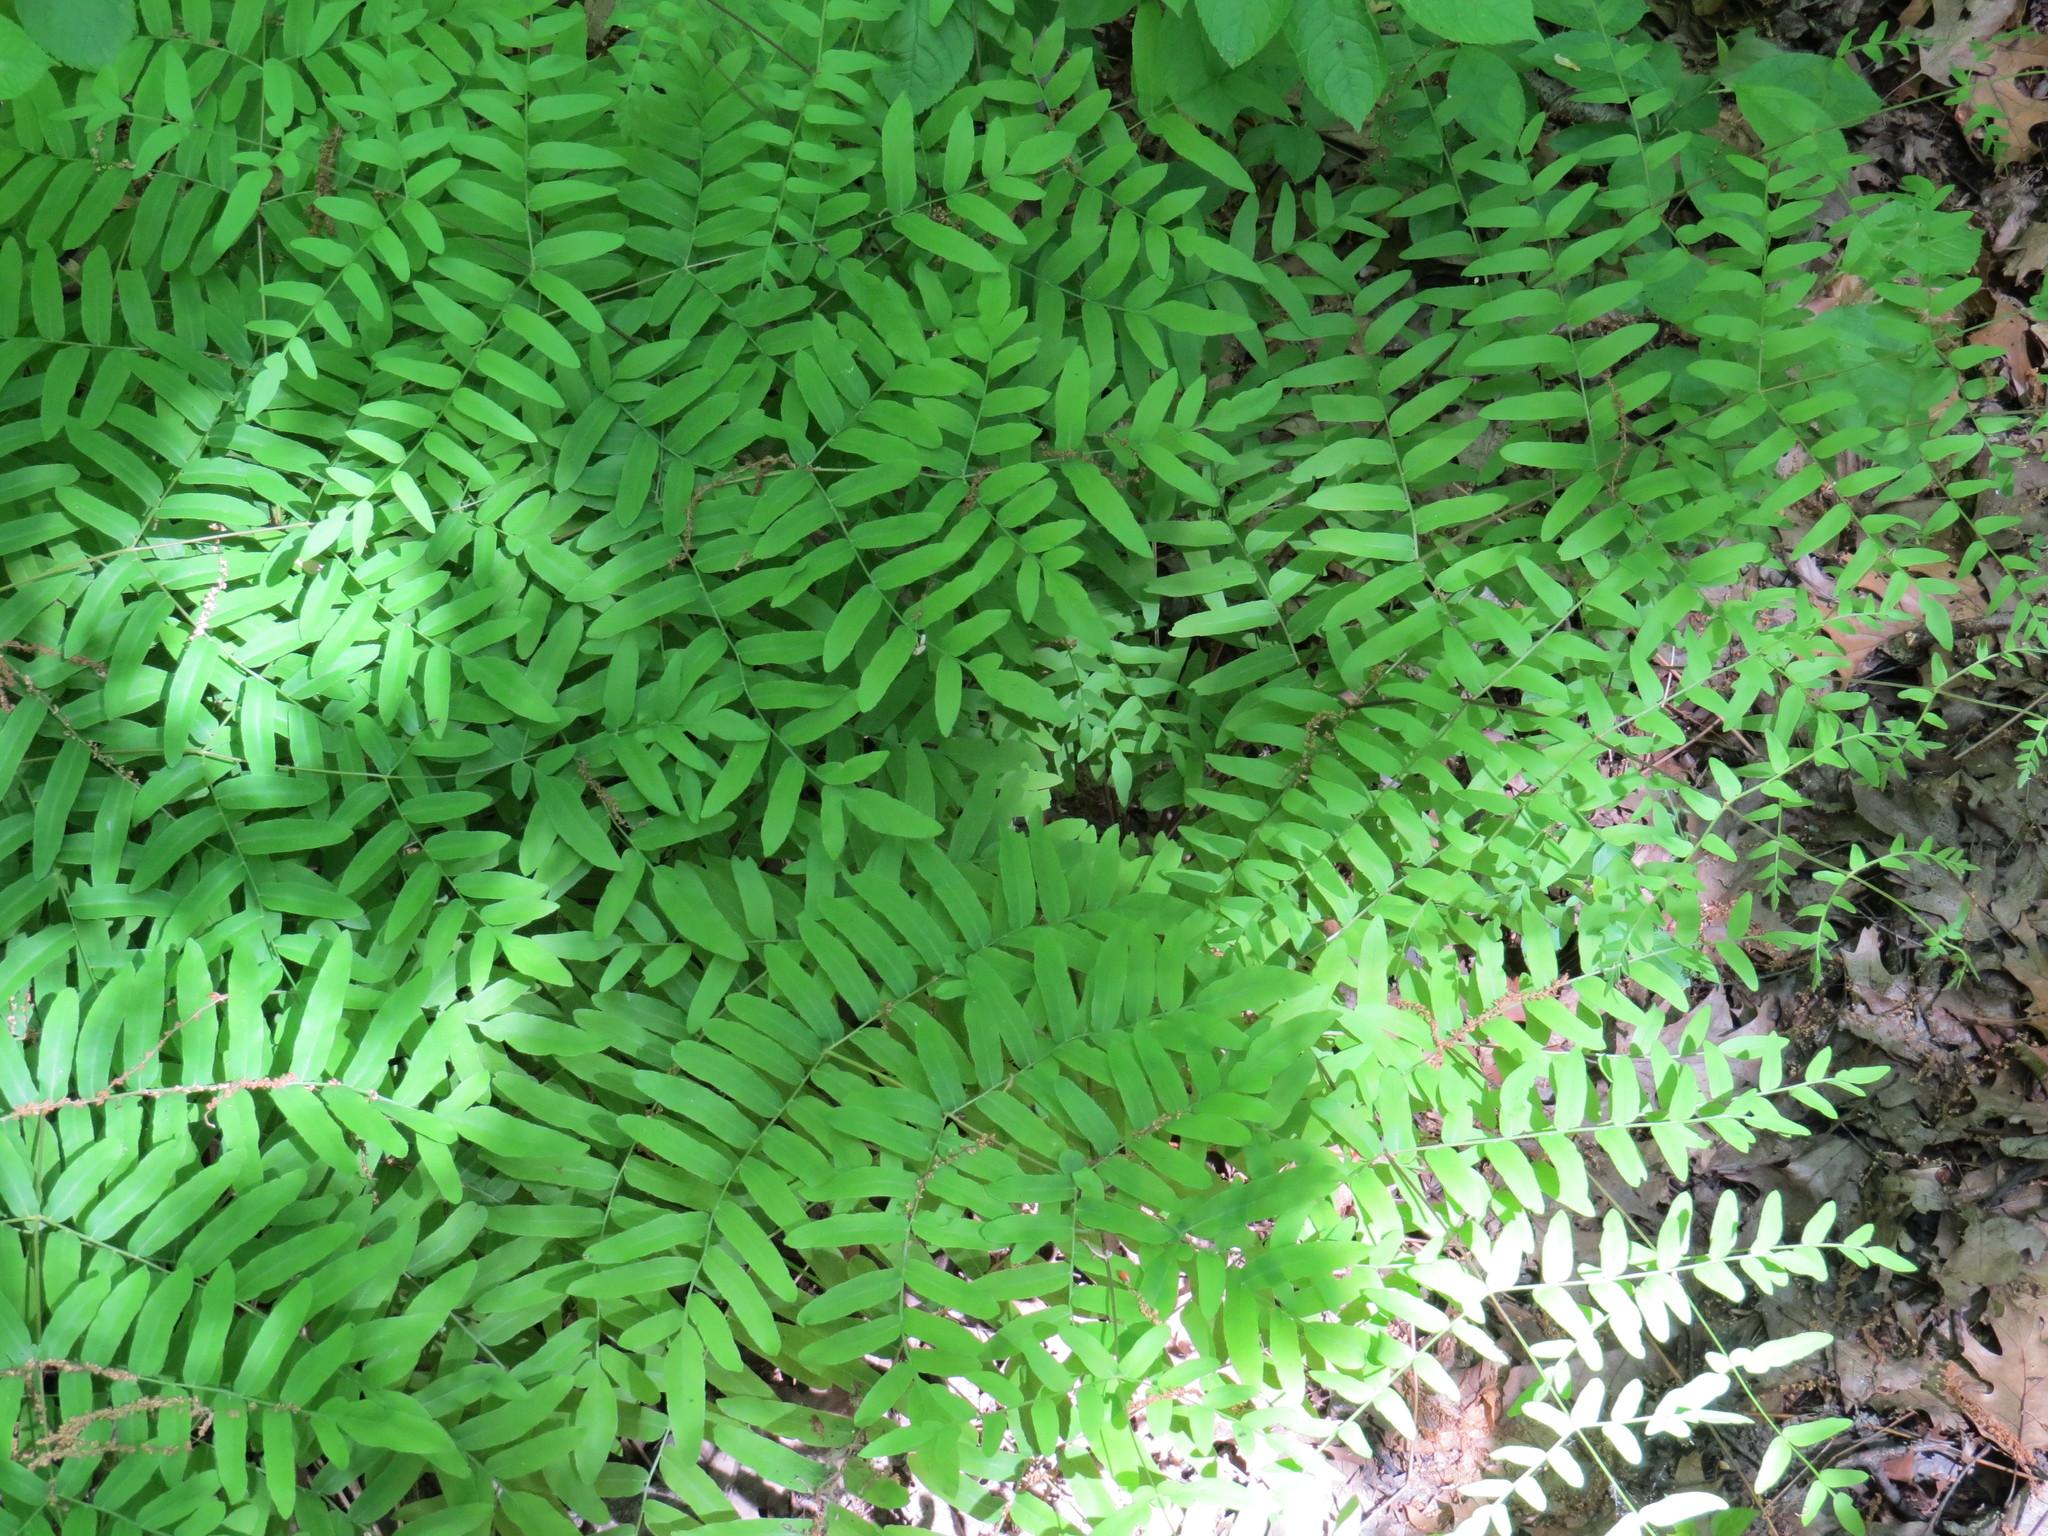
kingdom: Plantae
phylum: Tracheophyta
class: Polypodiopsida
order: Osmundales
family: Osmundaceae
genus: Osmunda
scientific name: Osmunda spectabilis
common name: American royal fern
